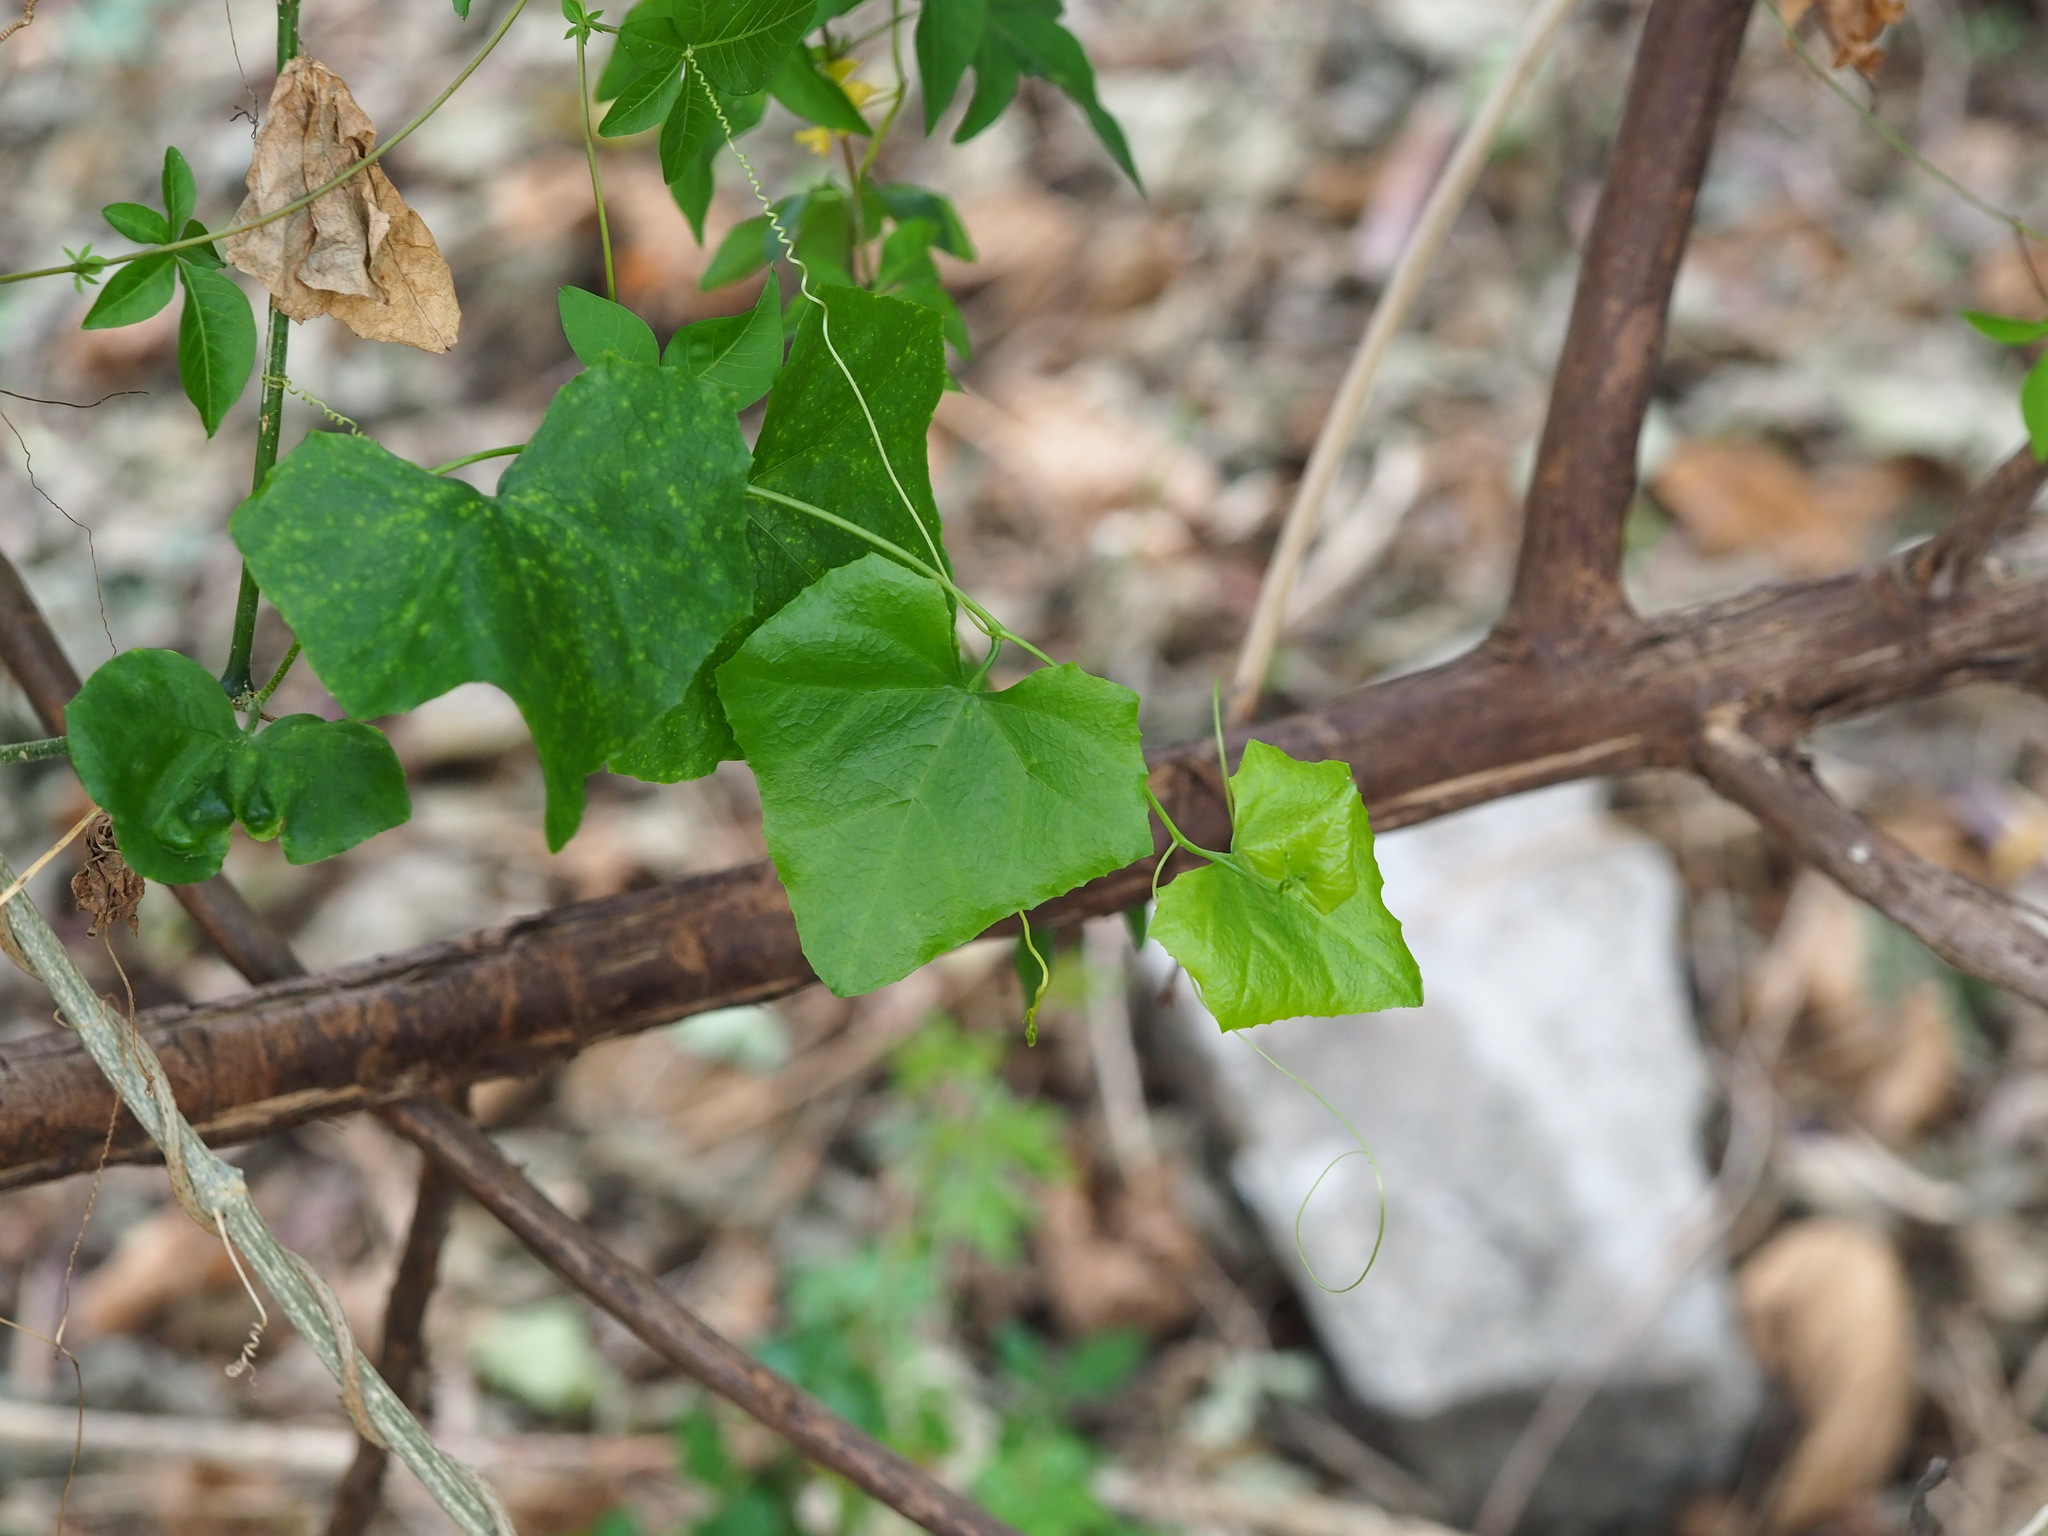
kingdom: Plantae
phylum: Tracheophyta
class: Magnoliopsida
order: Cucurbitales
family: Cucurbitaceae
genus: Melothria
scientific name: Melothria pendula
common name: Creeping-cucumber
